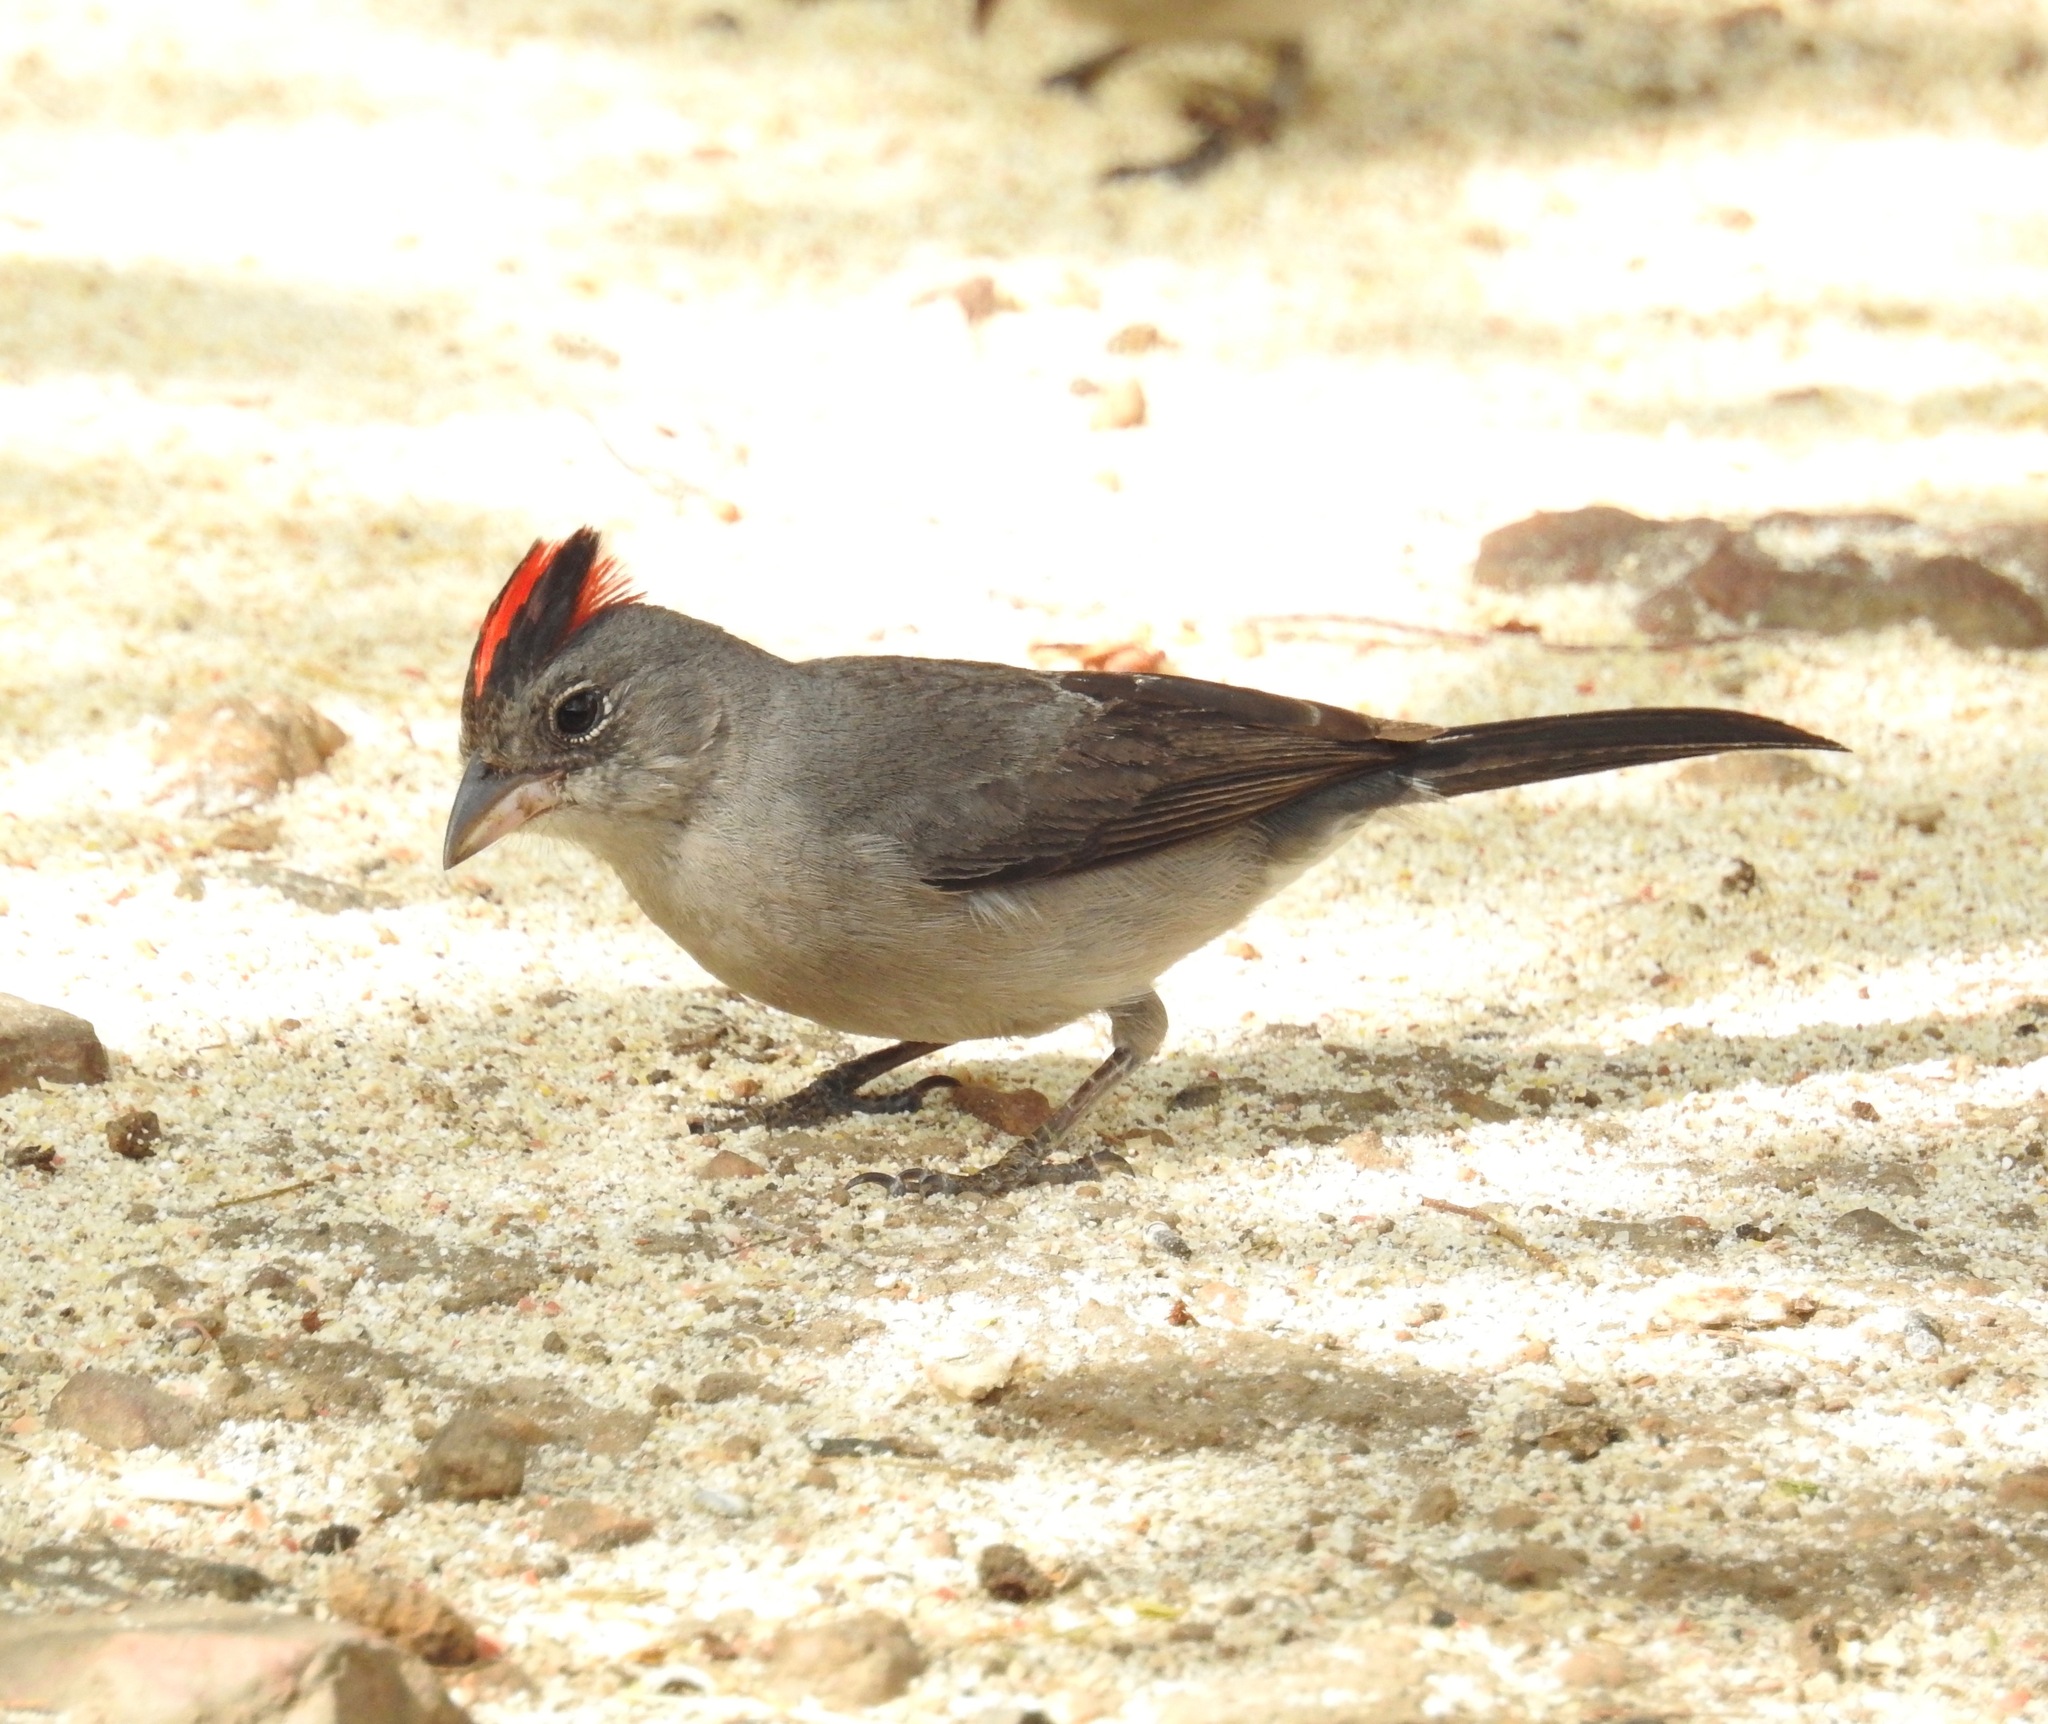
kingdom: Animalia
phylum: Chordata
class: Aves
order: Passeriformes
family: Thraupidae
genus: Coryphospingus
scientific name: Coryphospingus pileatus
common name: Grey pileated finch
